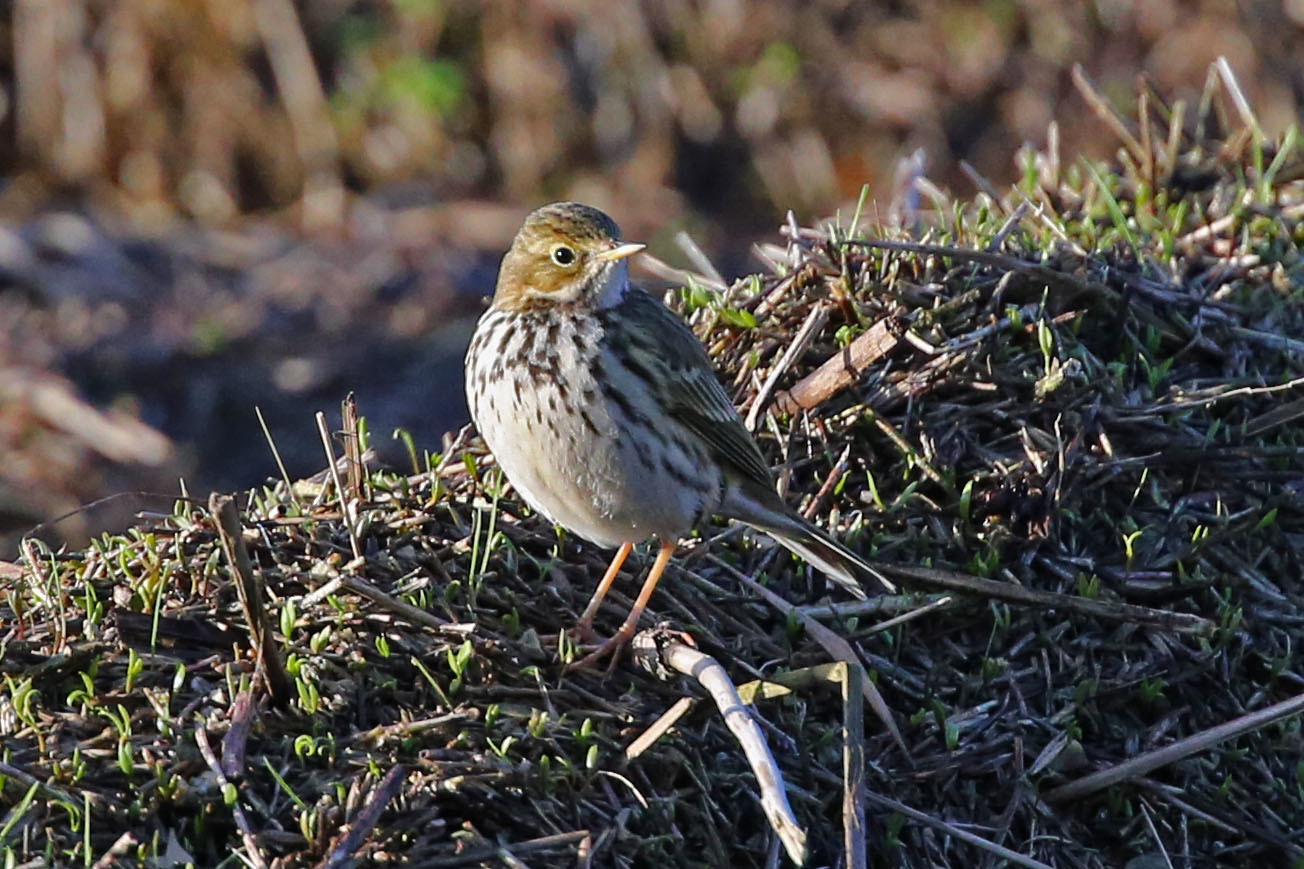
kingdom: Animalia
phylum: Chordata
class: Aves
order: Passeriformes
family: Motacillidae
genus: Anthus
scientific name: Anthus pratensis
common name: Meadow pipit
